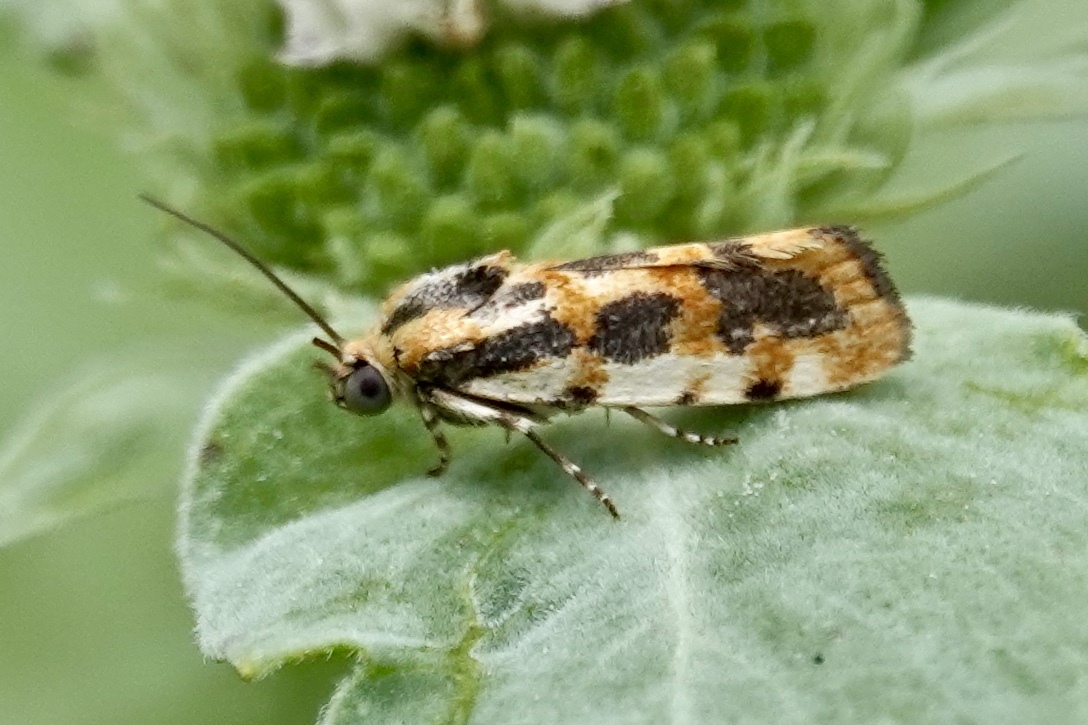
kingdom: Animalia
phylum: Arthropoda
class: Insecta
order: Lepidoptera
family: Noctuidae
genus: Acontia
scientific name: Acontia leo
